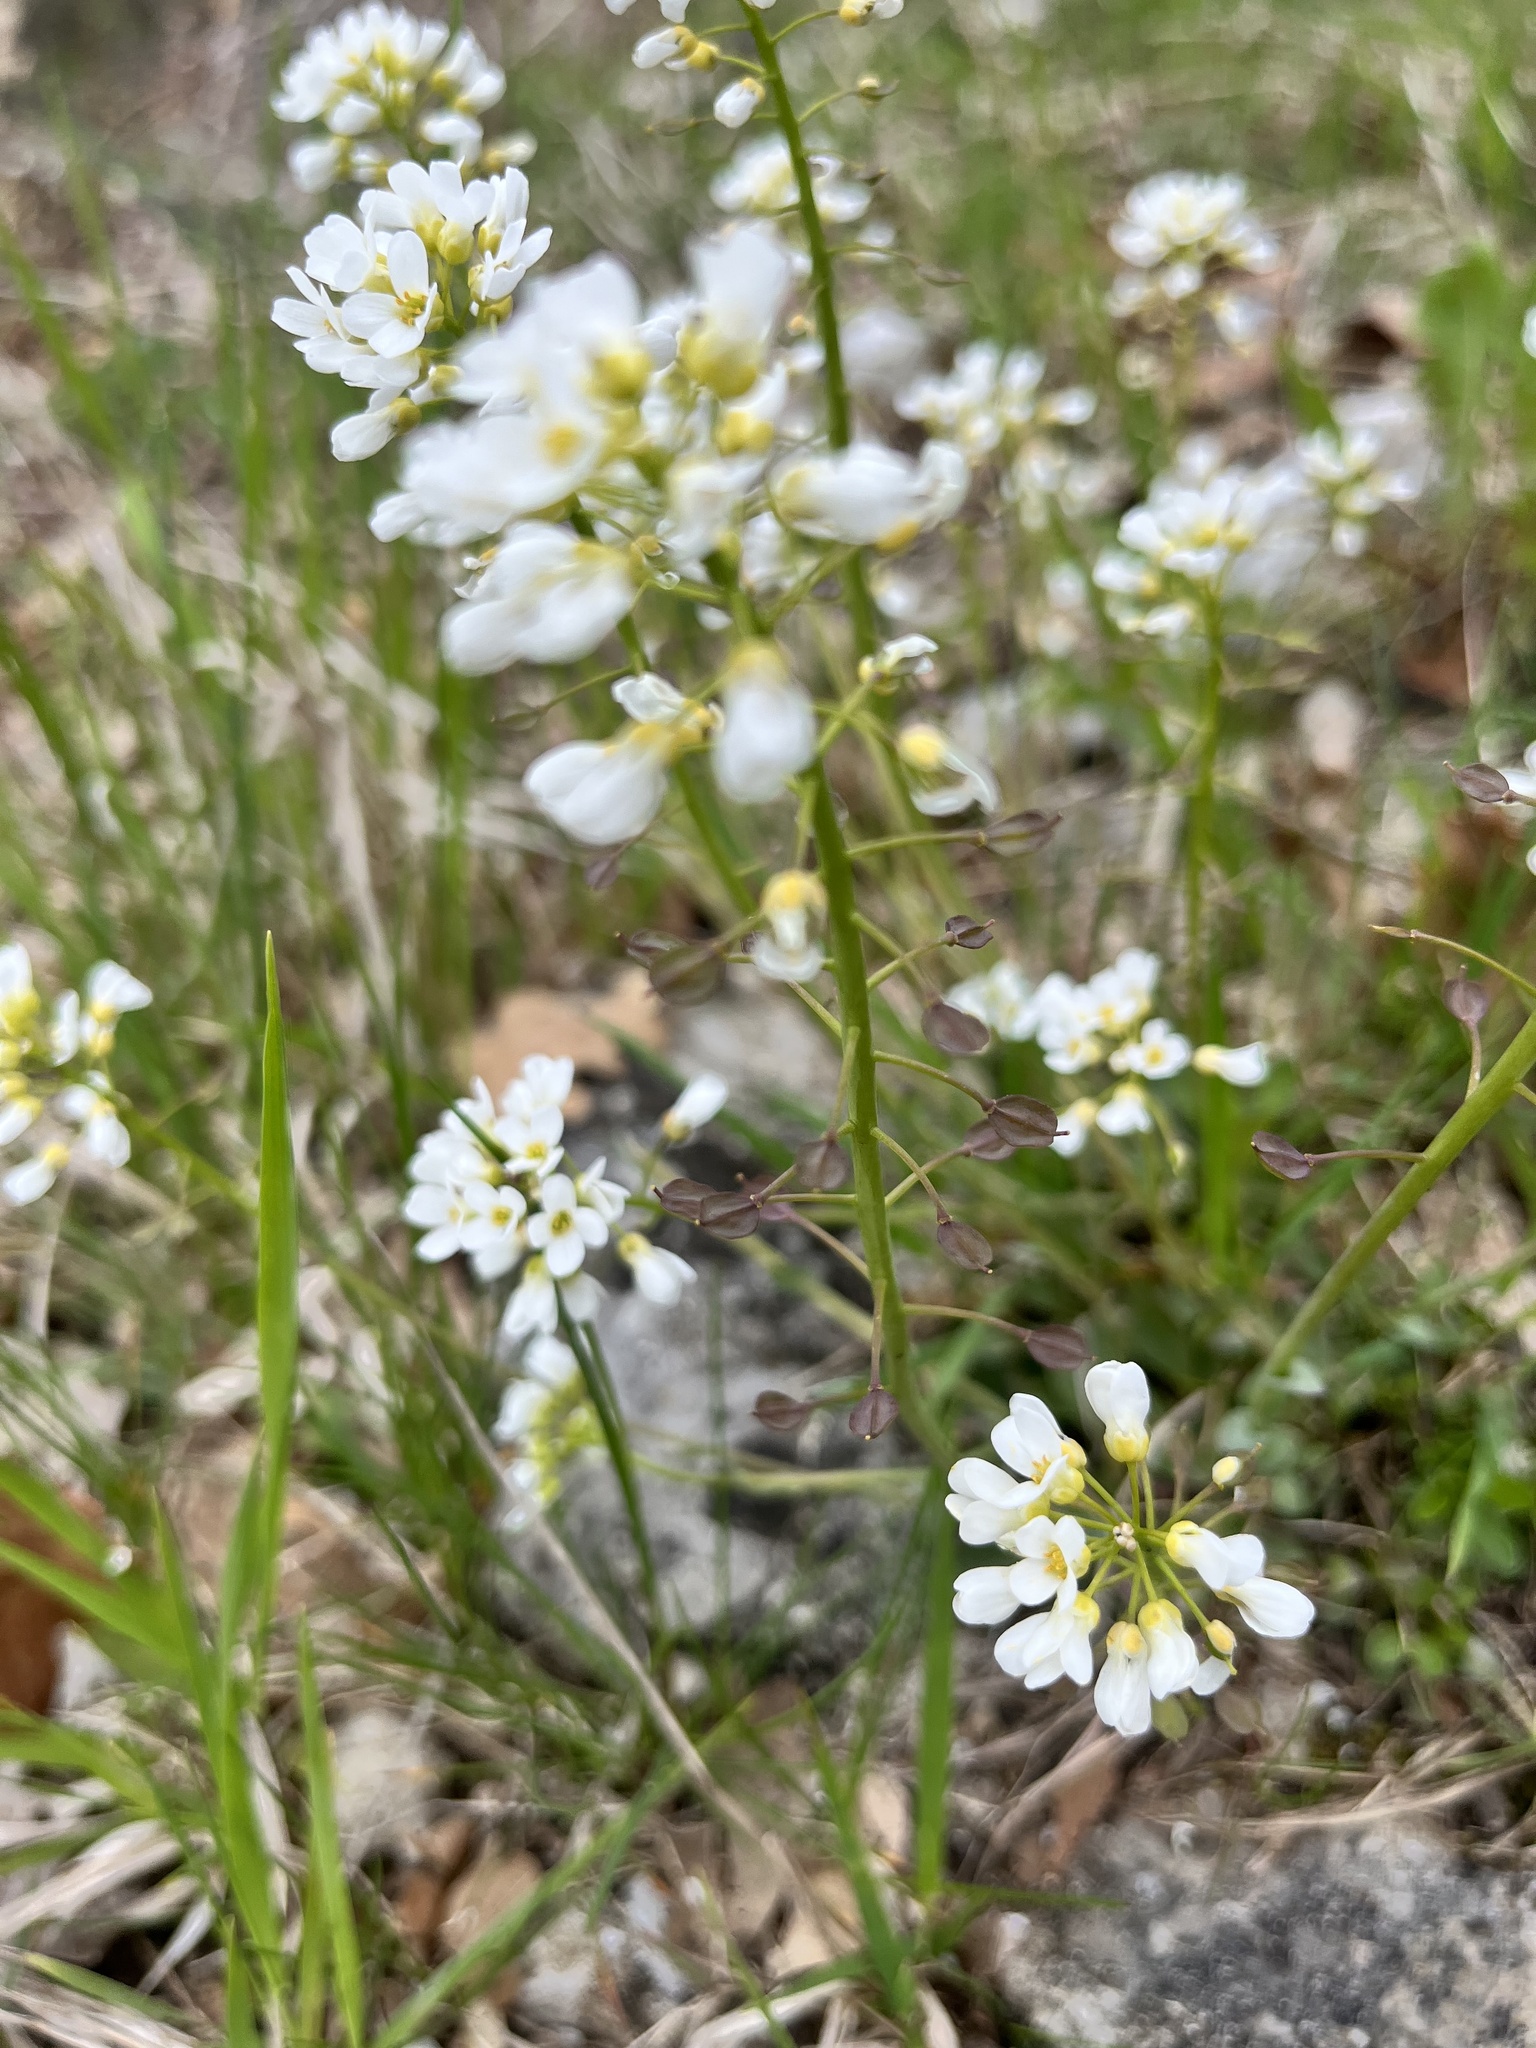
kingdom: Plantae
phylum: Tracheophyta
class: Magnoliopsida
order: Brassicales
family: Brassicaceae
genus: Noccaea
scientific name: Noccaea montana
